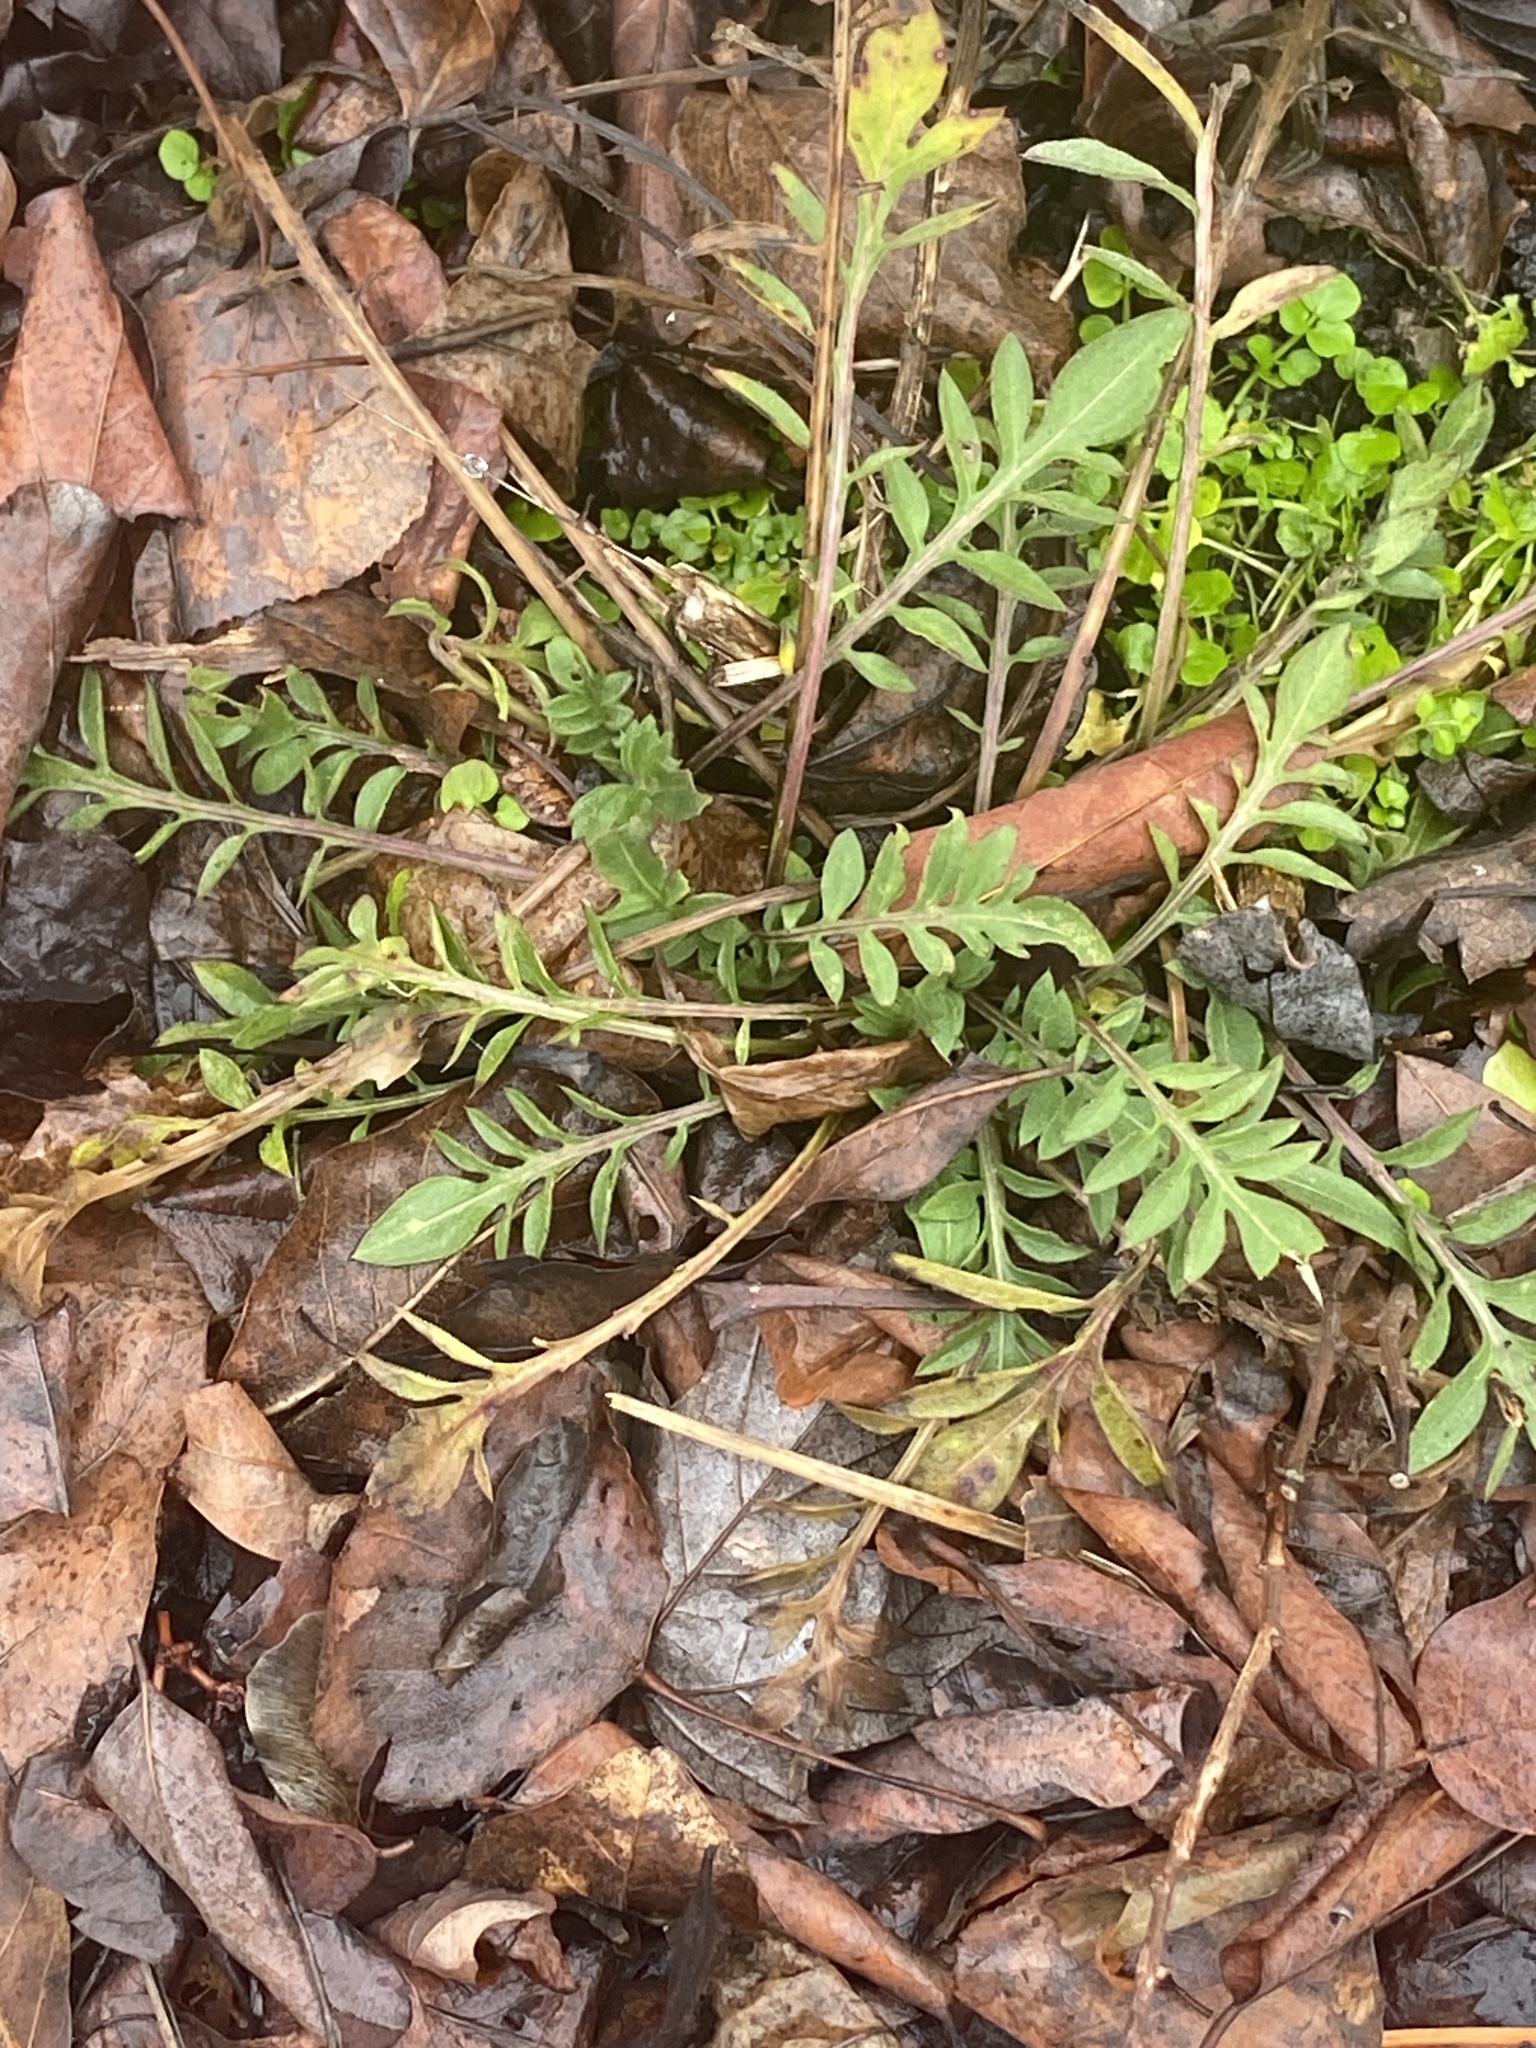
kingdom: Plantae
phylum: Tracheophyta
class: Magnoliopsida
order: Asterales
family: Asteraceae
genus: Centaurea
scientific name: Centaurea stoebe
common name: Spotted knapweed
